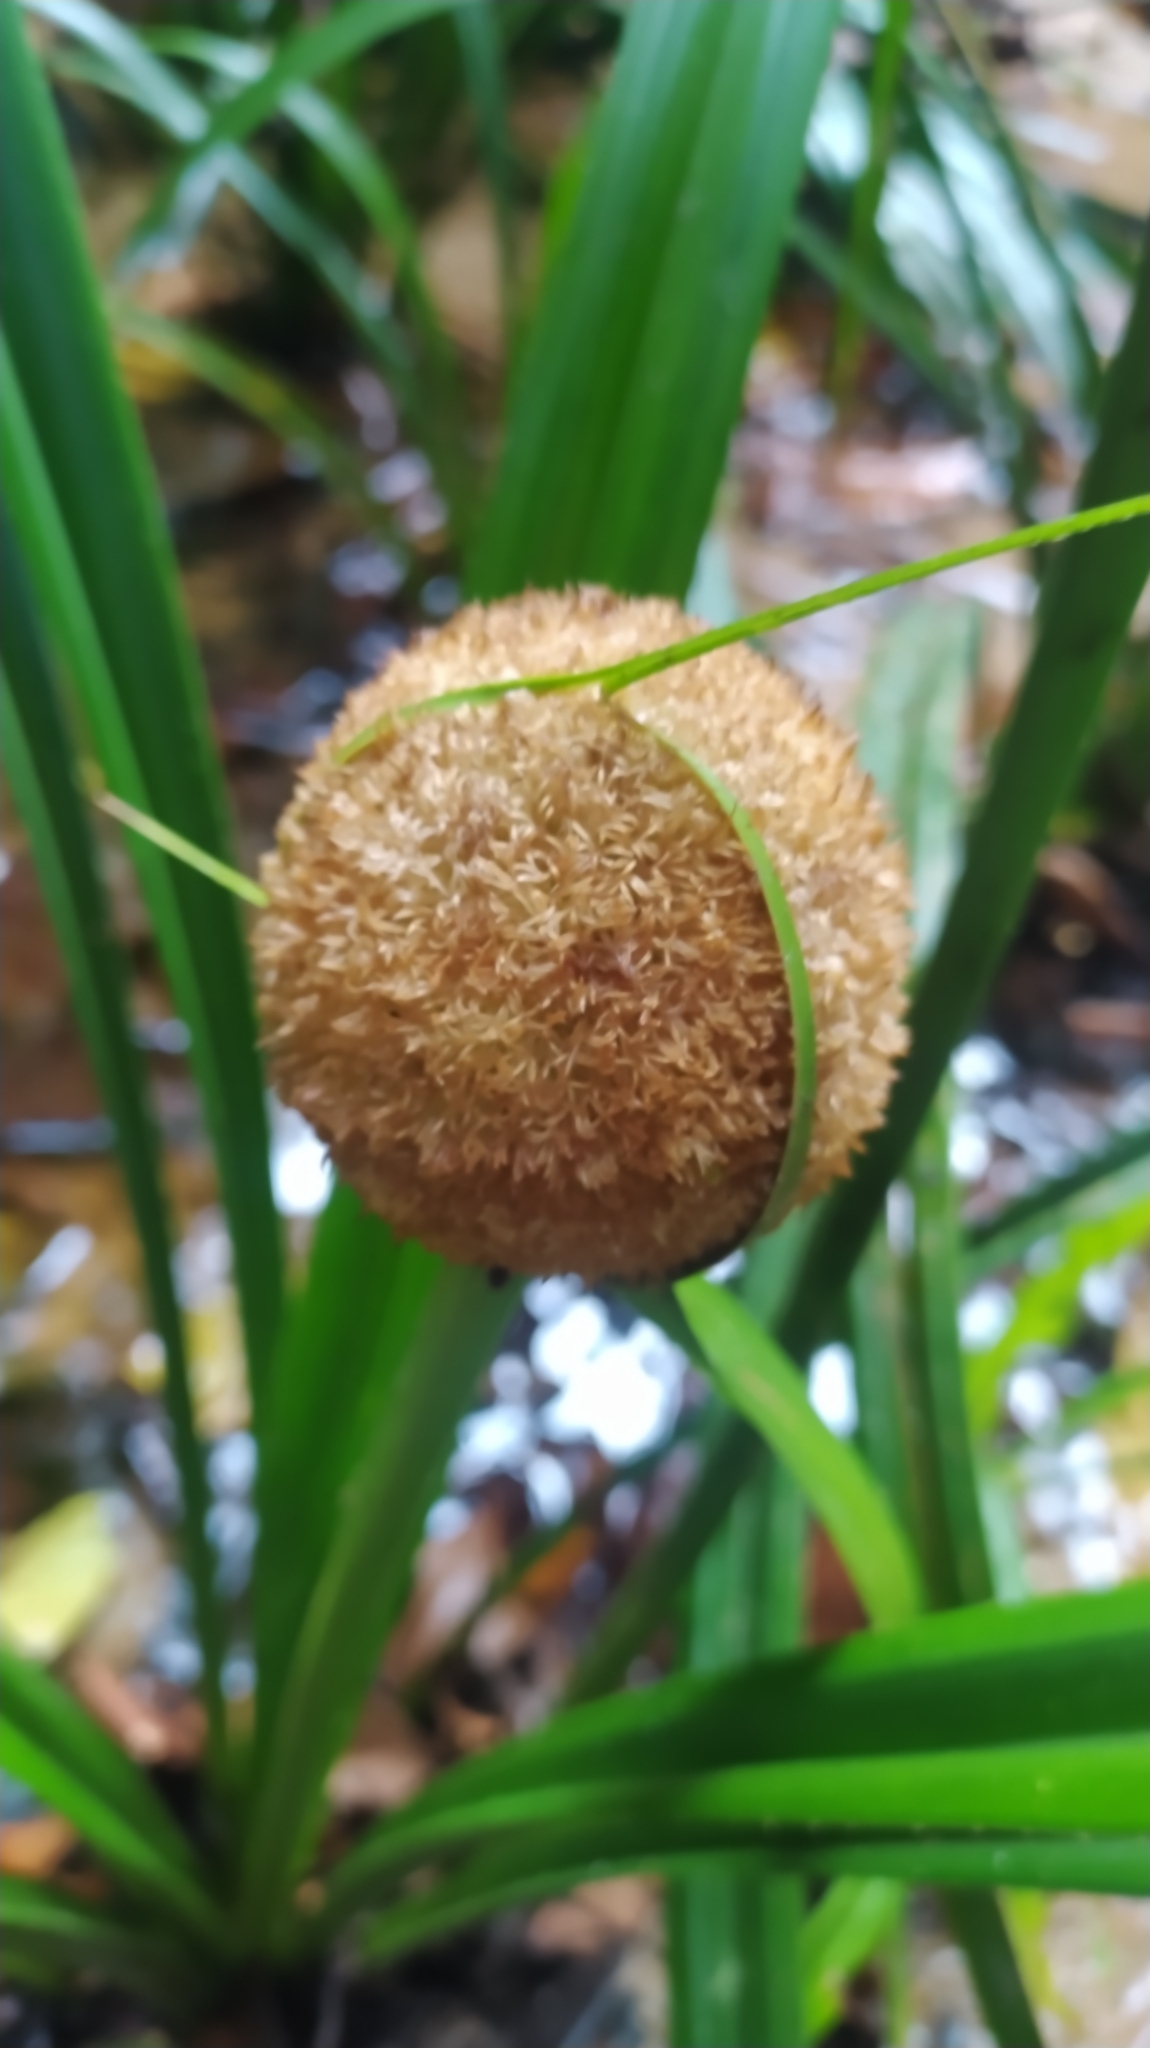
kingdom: Plantae
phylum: Tracheophyta
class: Liliopsida
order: Poales
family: Thurniaceae
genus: Thurnia
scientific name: Thurnia sphaerocephala
